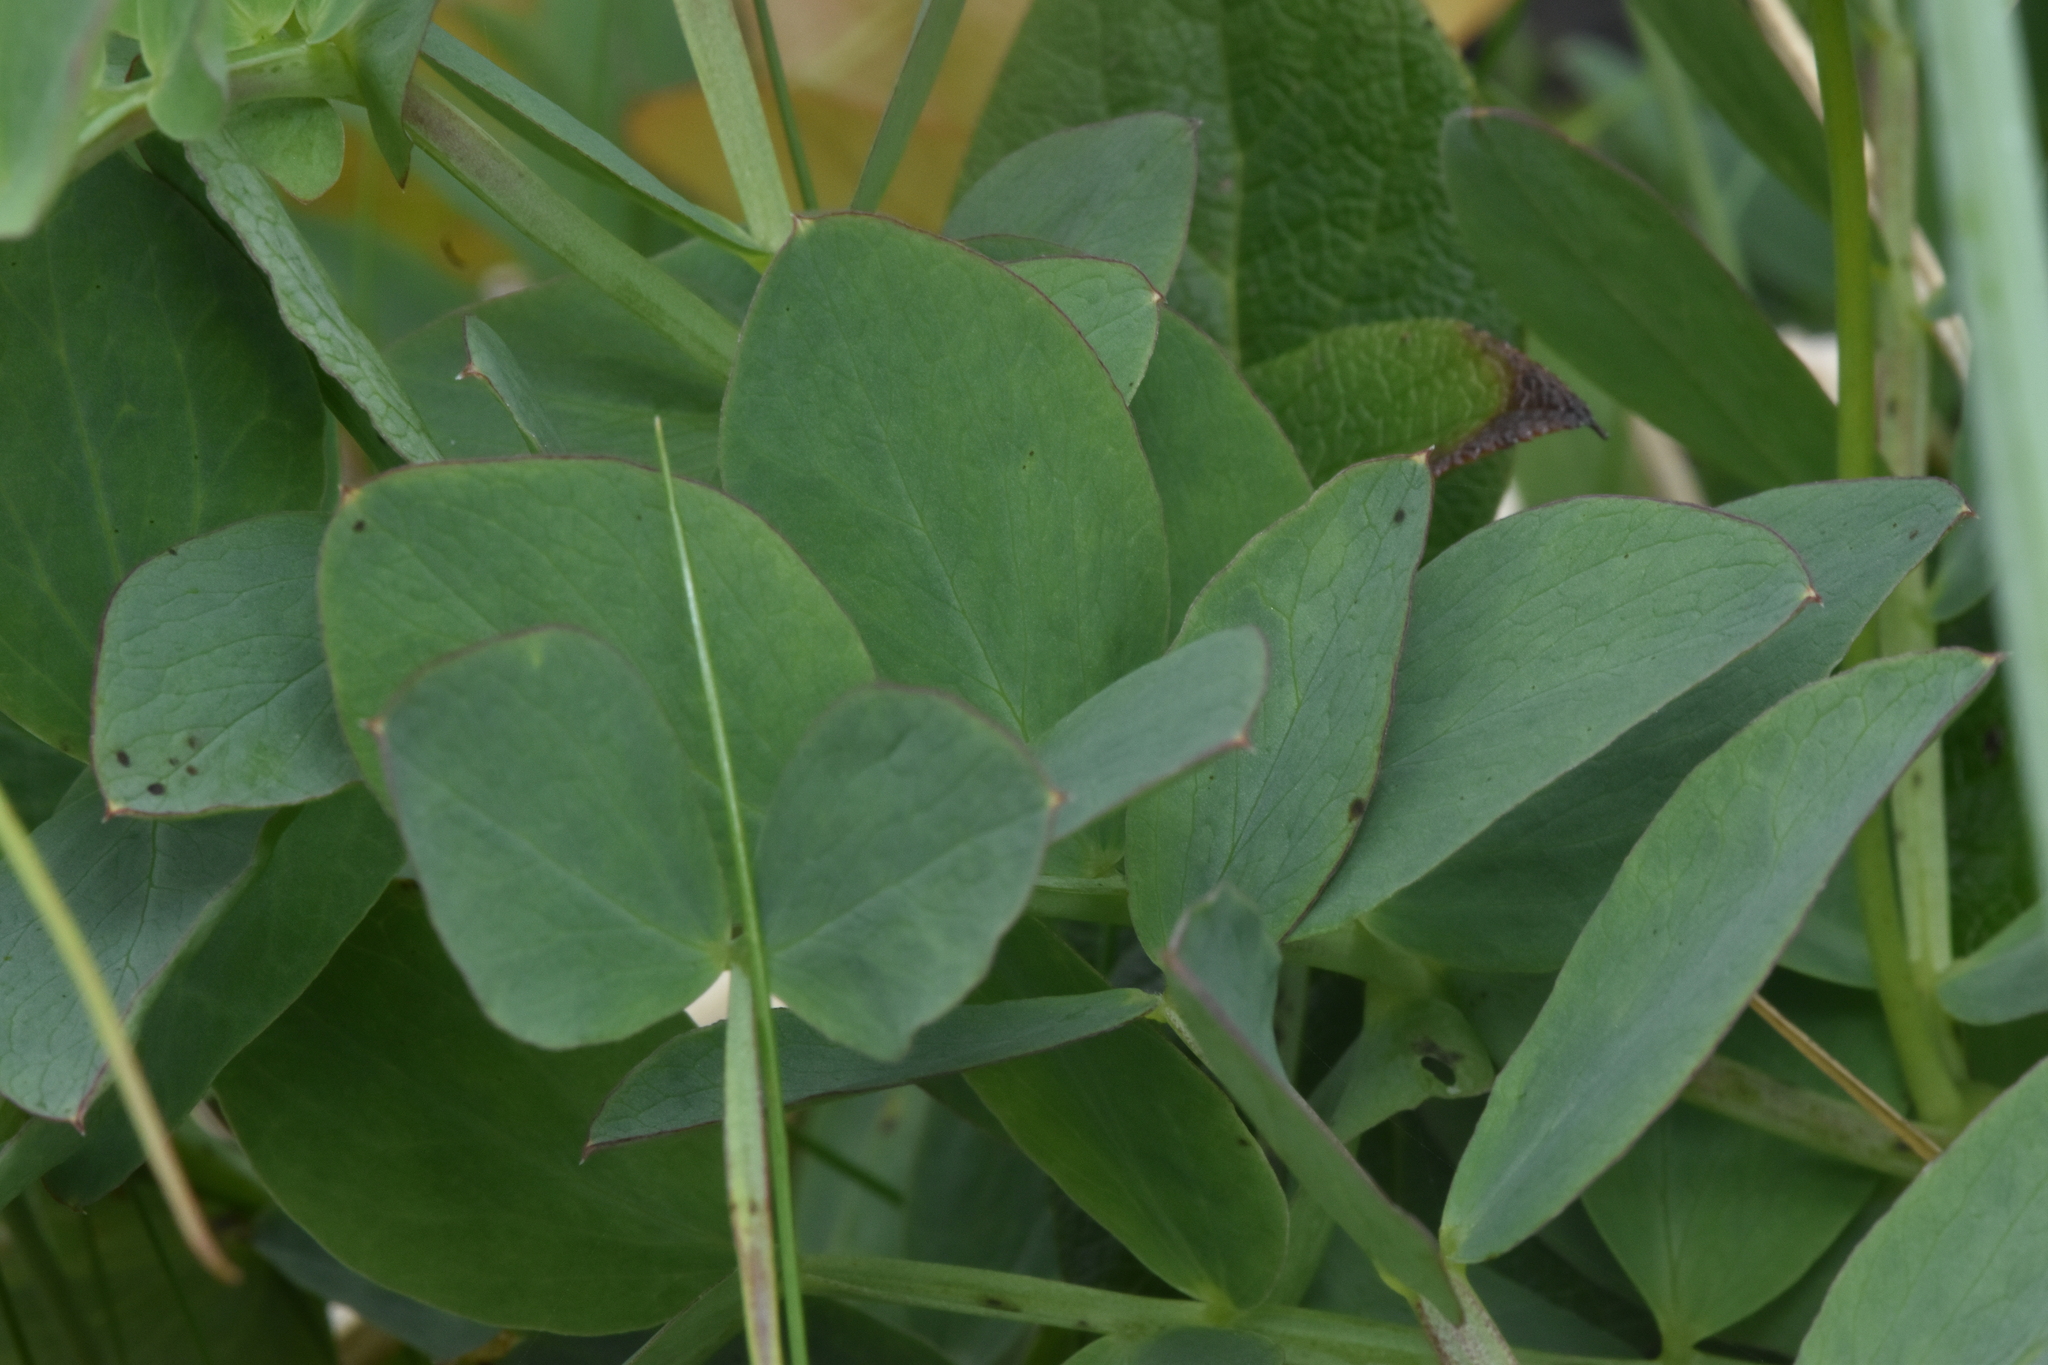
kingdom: Plantae
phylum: Tracheophyta
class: Magnoliopsida
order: Fabales
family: Fabaceae
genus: Lathyrus
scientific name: Lathyrus japonicus
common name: Sea pea
